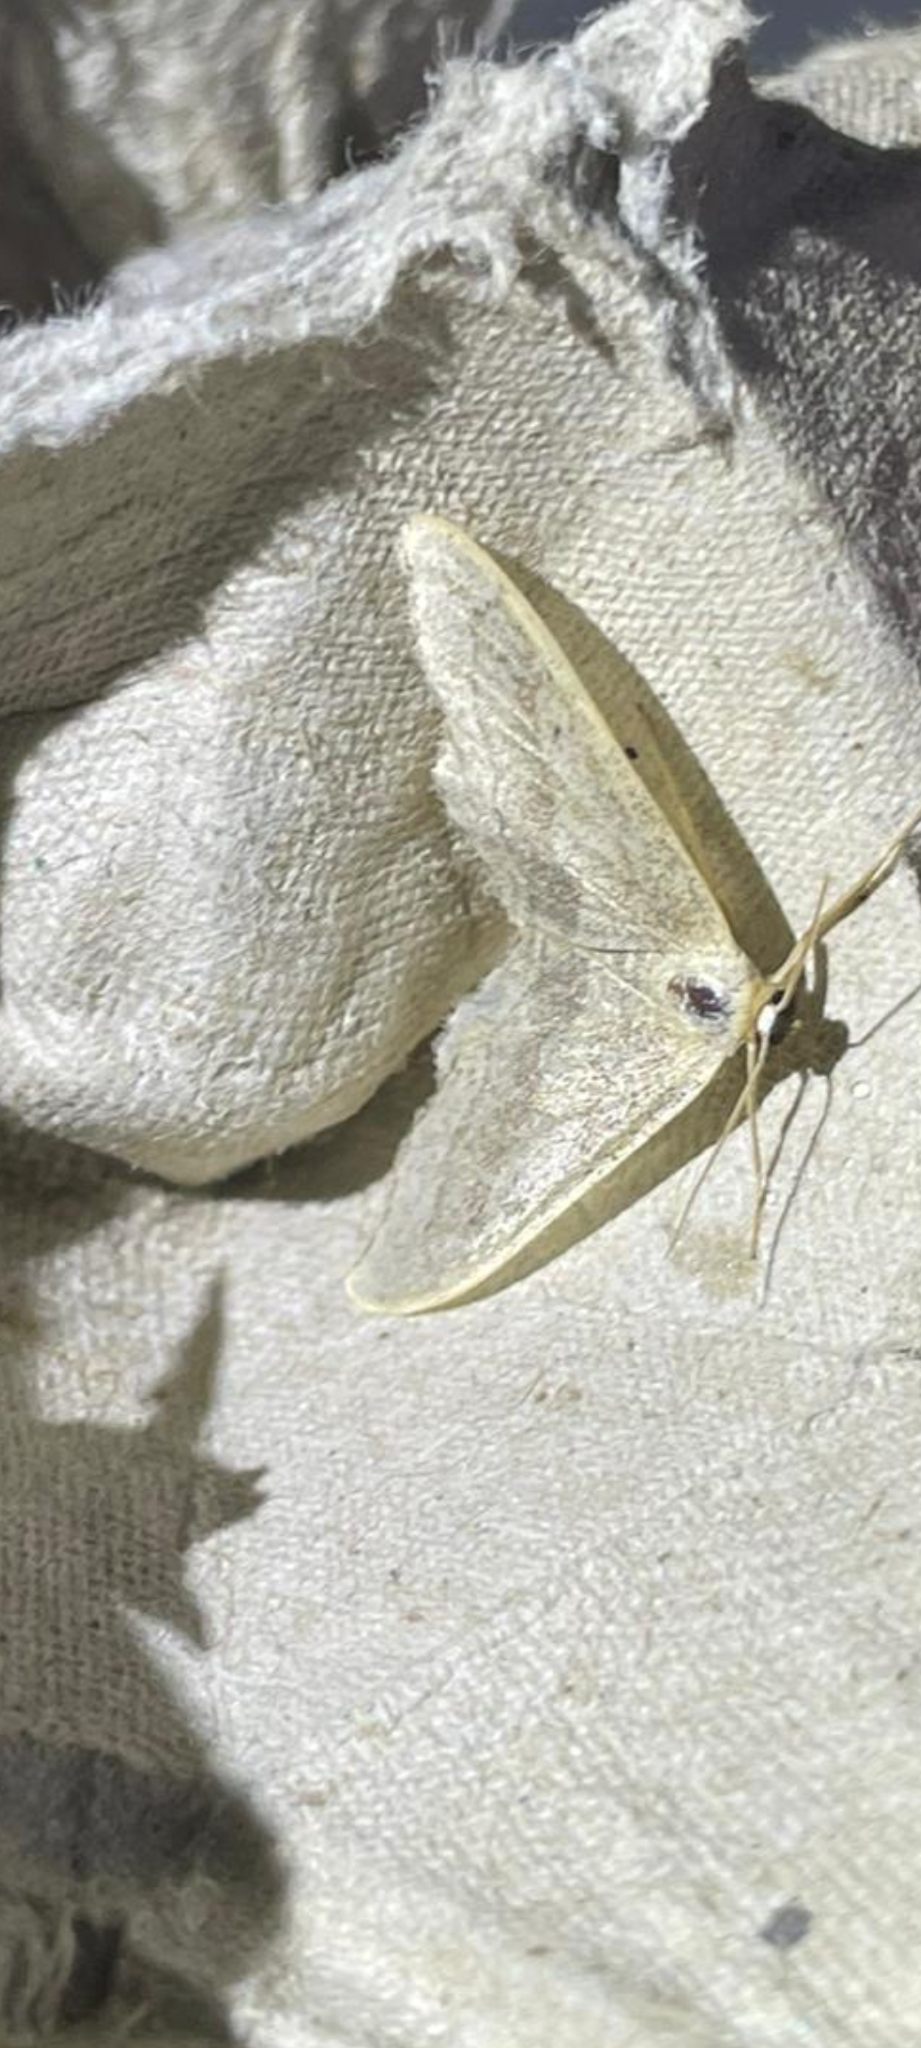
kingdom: Animalia
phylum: Arthropoda
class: Insecta
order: Lepidoptera
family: Geometridae
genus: Idaea
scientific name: Idaea aversata
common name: Riband wave
